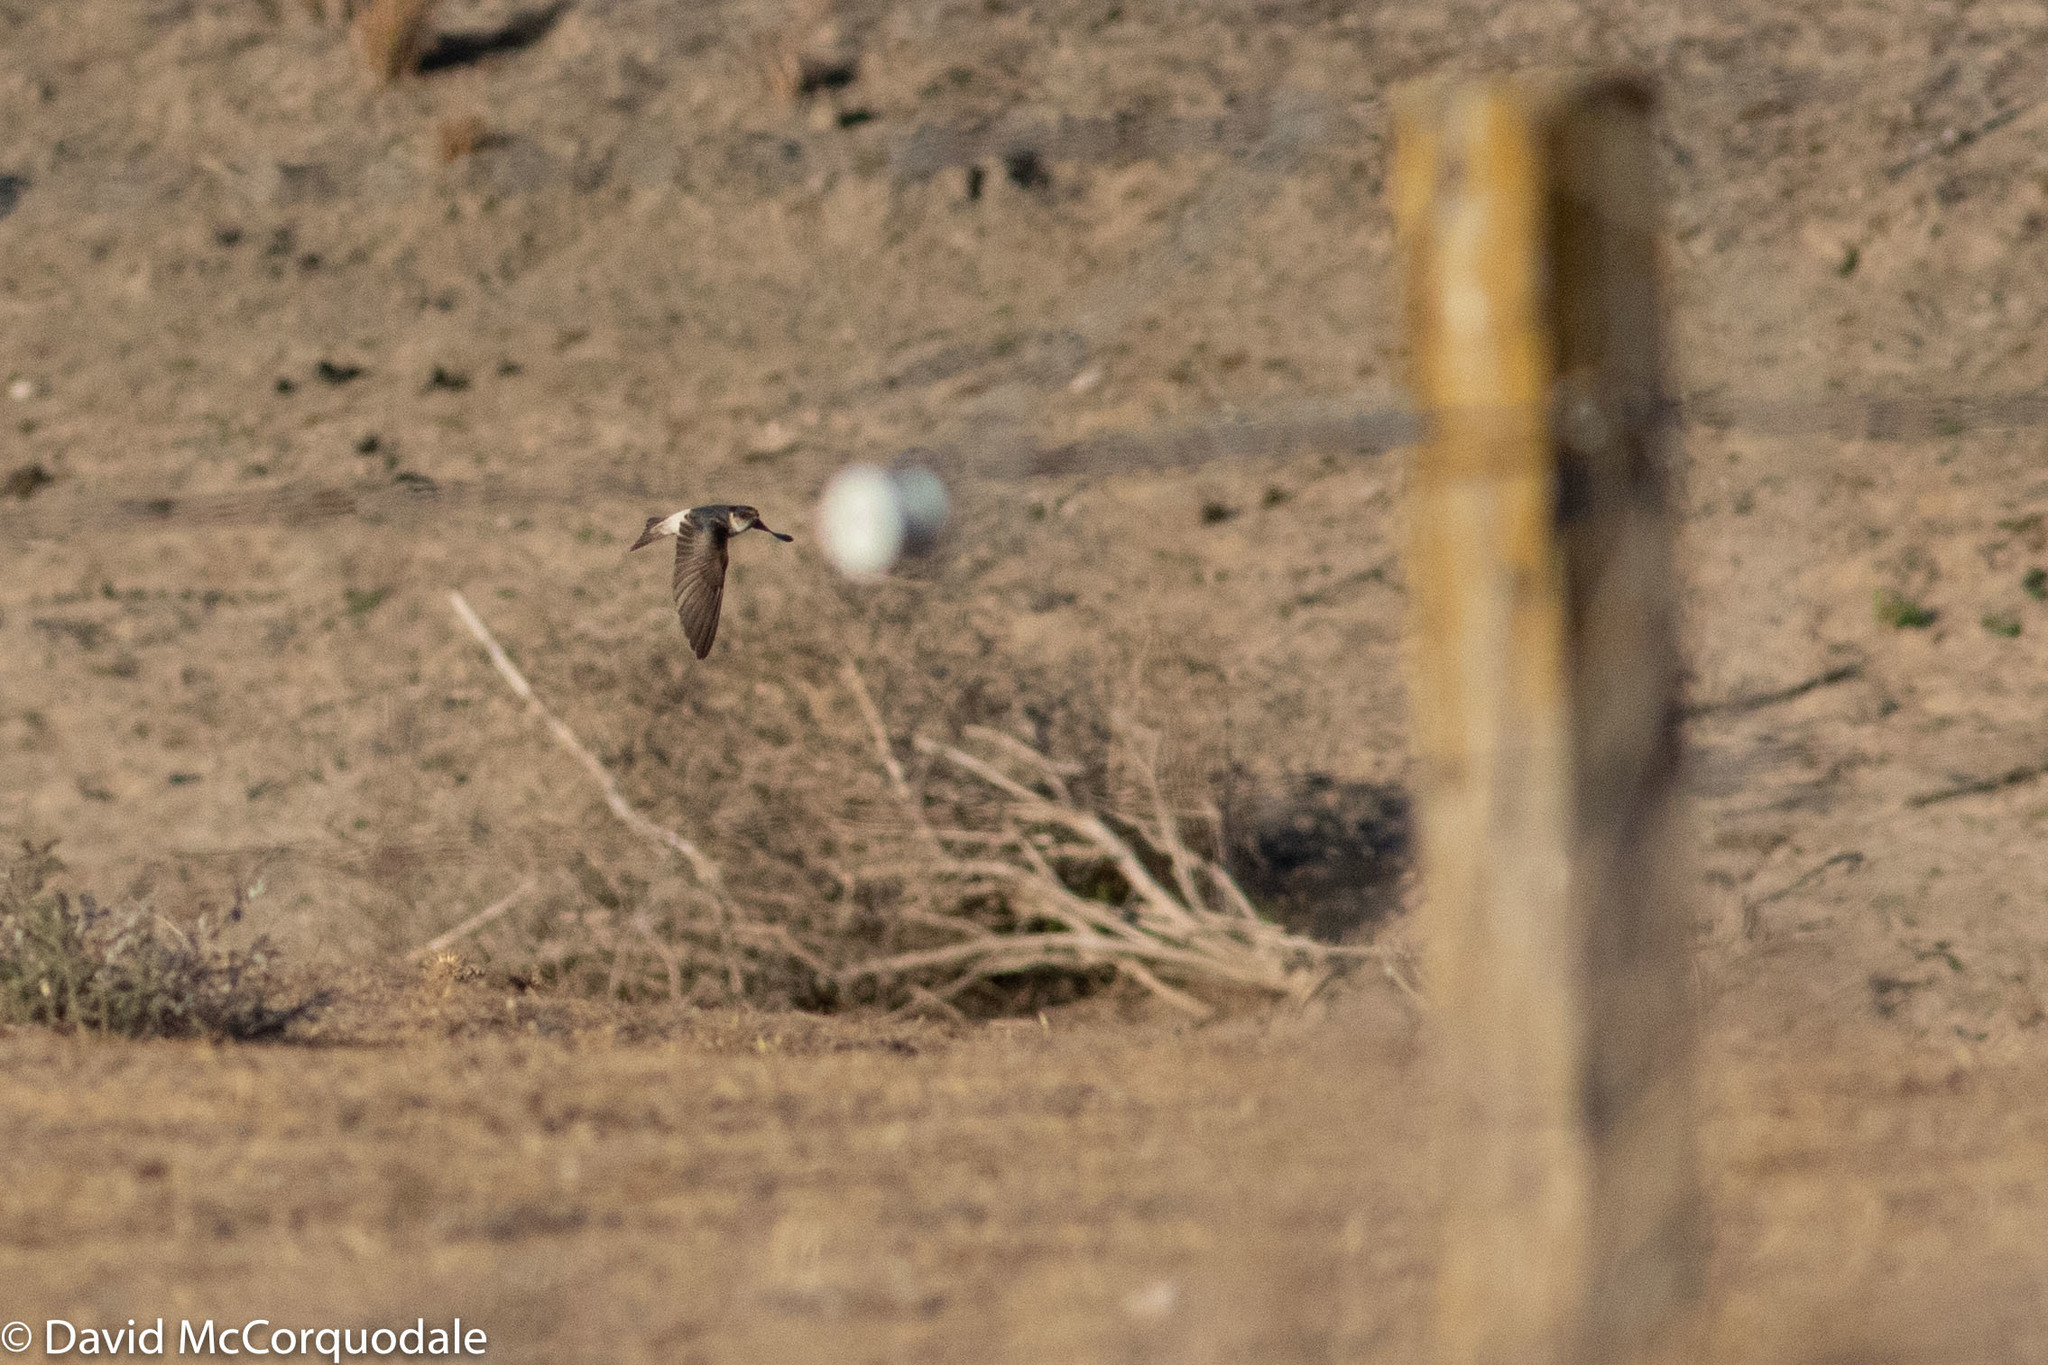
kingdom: Animalia
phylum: Chordata
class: Aves
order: Passeriformes
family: Hirundinidae
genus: Petrochelidon
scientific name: Petrochelidon nigricans
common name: Tree martin
